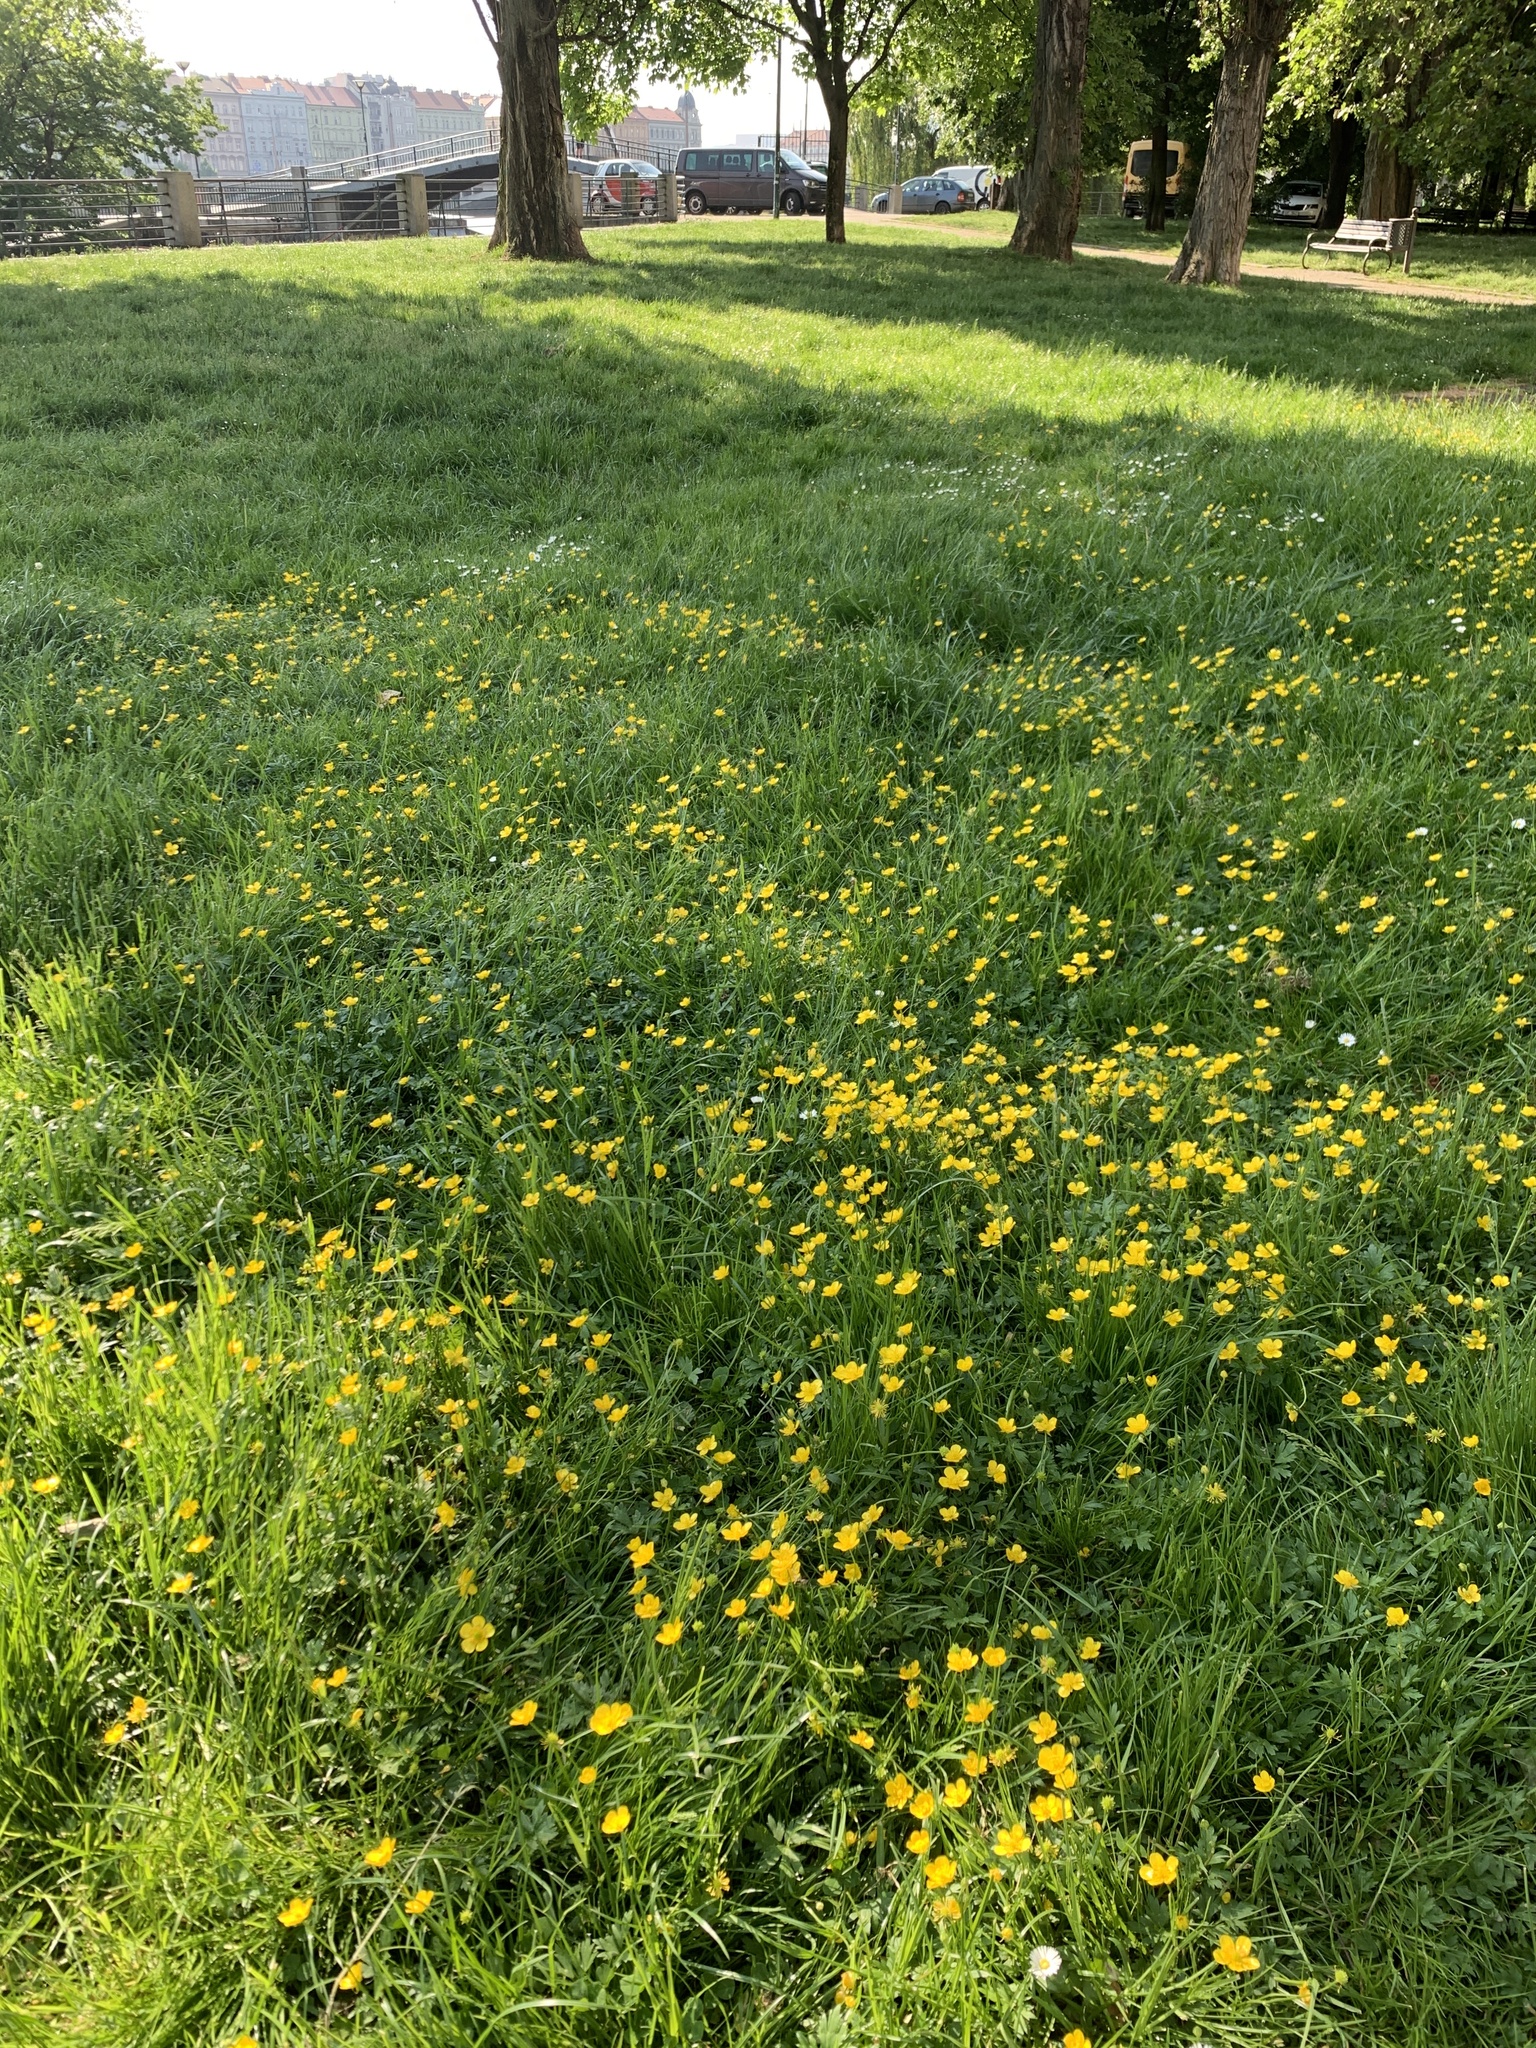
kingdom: Plantae
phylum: Tracheophyta
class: Magnoliopsida
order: Ranunculales
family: Ranunculaceae
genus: Ranunculus
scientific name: Ranunculus repens
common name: Creeping buttercup
